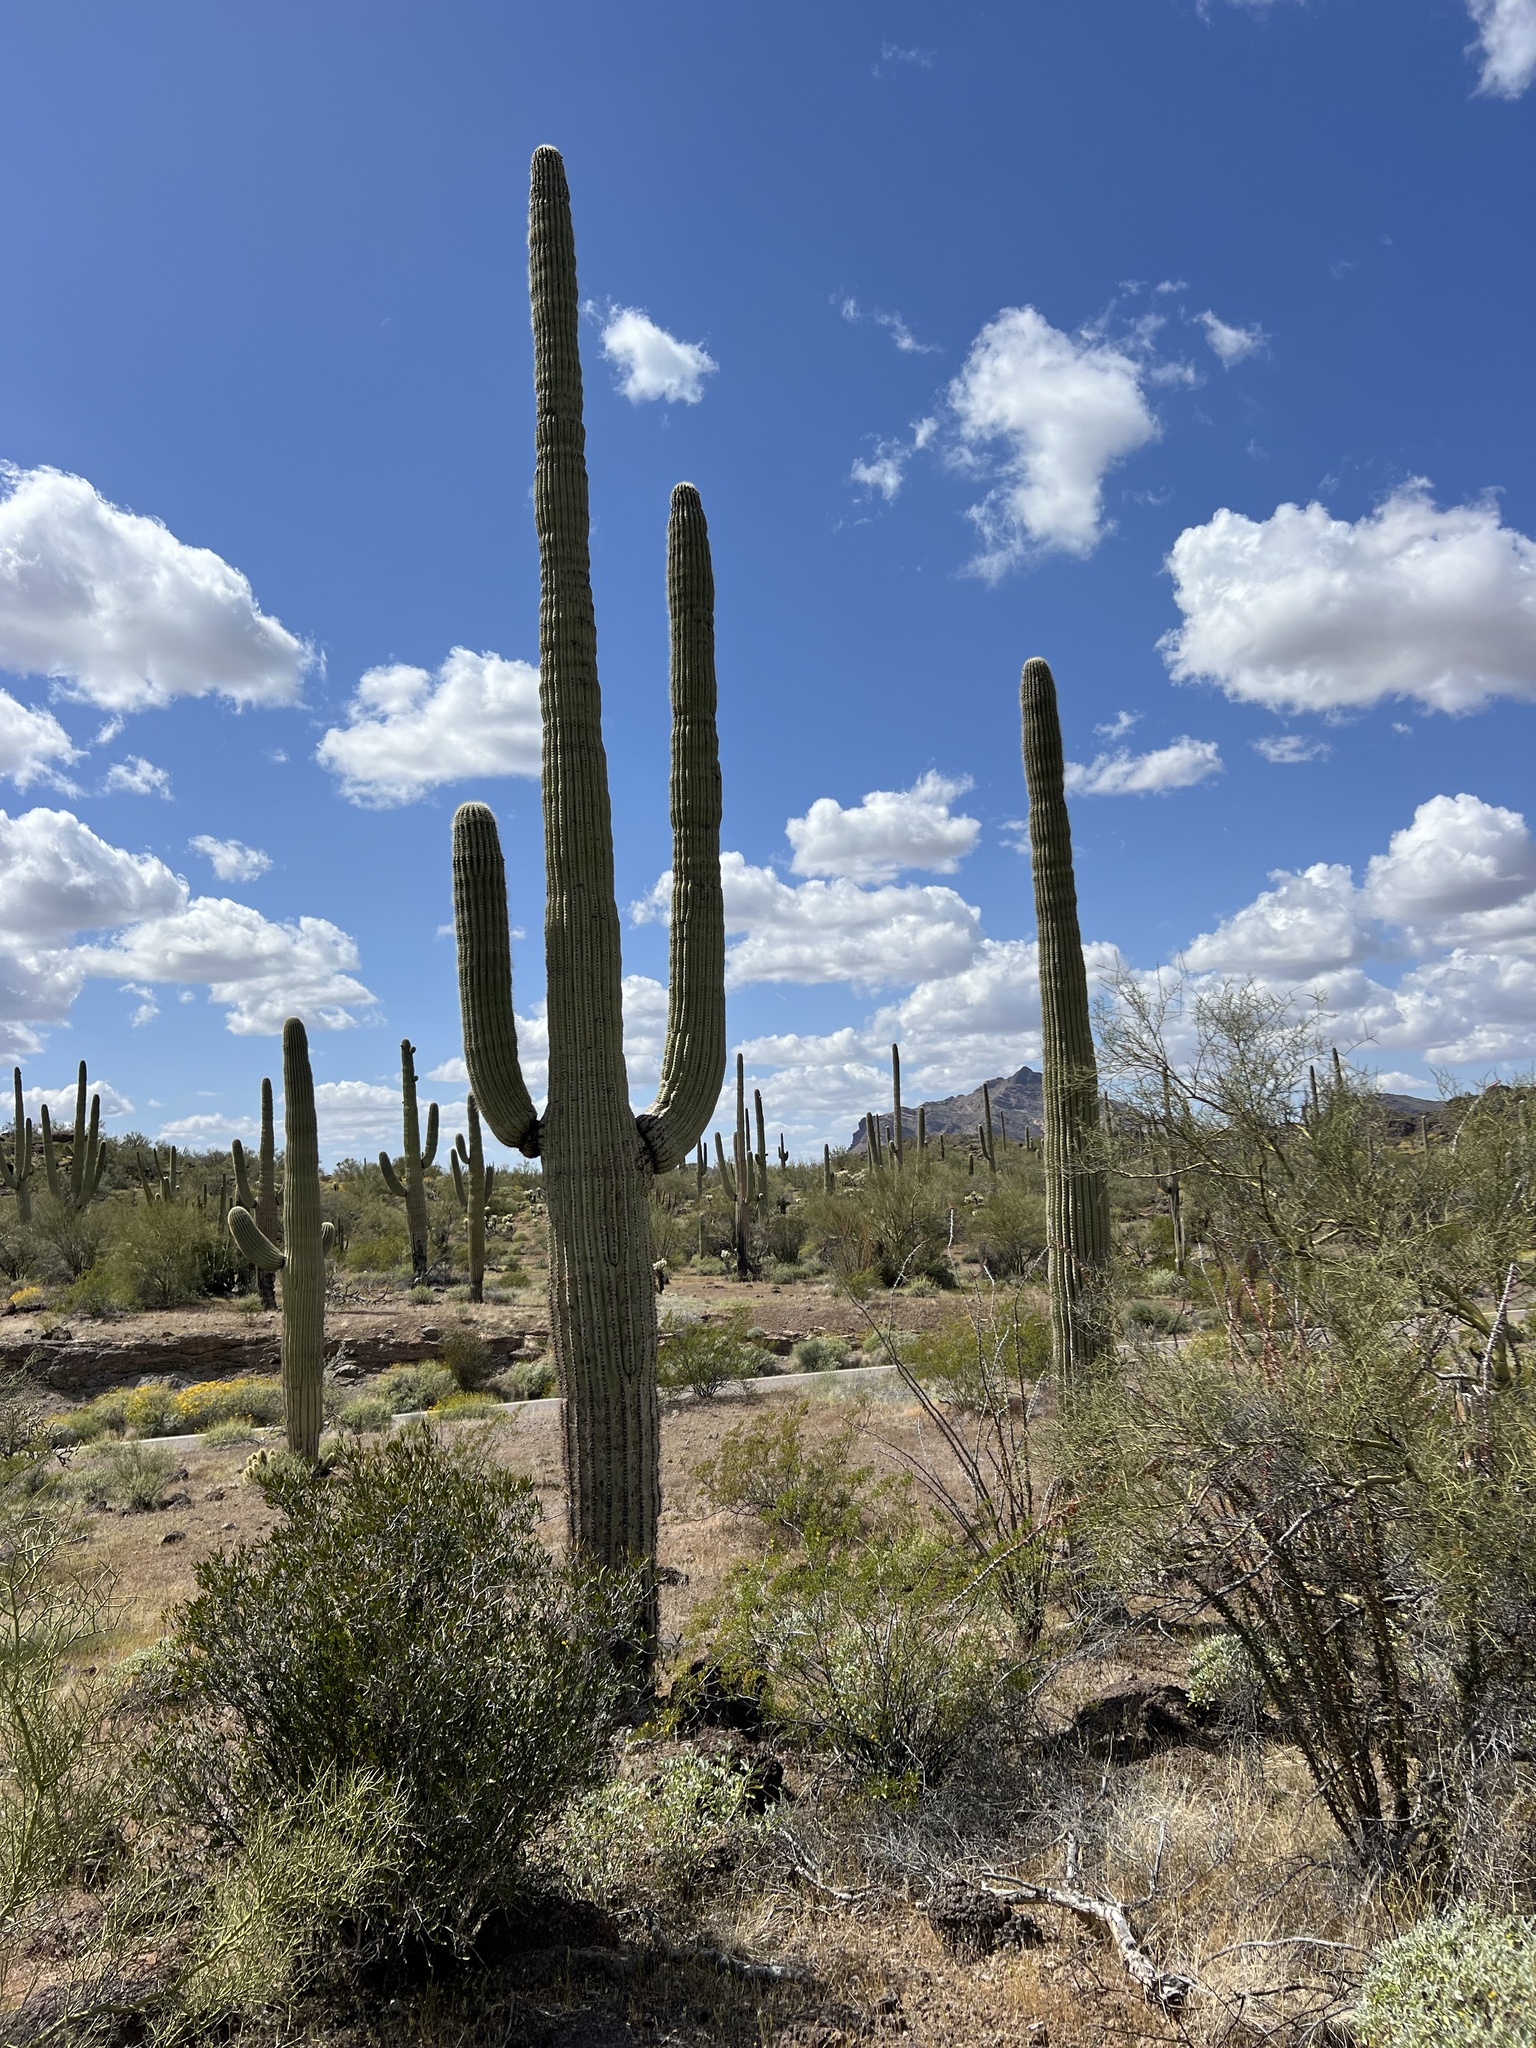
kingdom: Plantae
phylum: Tracheophyta
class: Magnoliopsida
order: Caryophyllales
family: Cactaceae
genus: Carnegiea
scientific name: Carnegiea gigantea
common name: Saguaro
